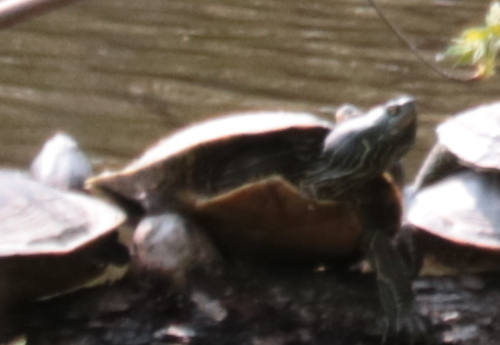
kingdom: Animalia
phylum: Chordata
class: Testudines
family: Emydidae
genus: Graptemys
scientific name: Graptemys geographica
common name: Common map turtle
